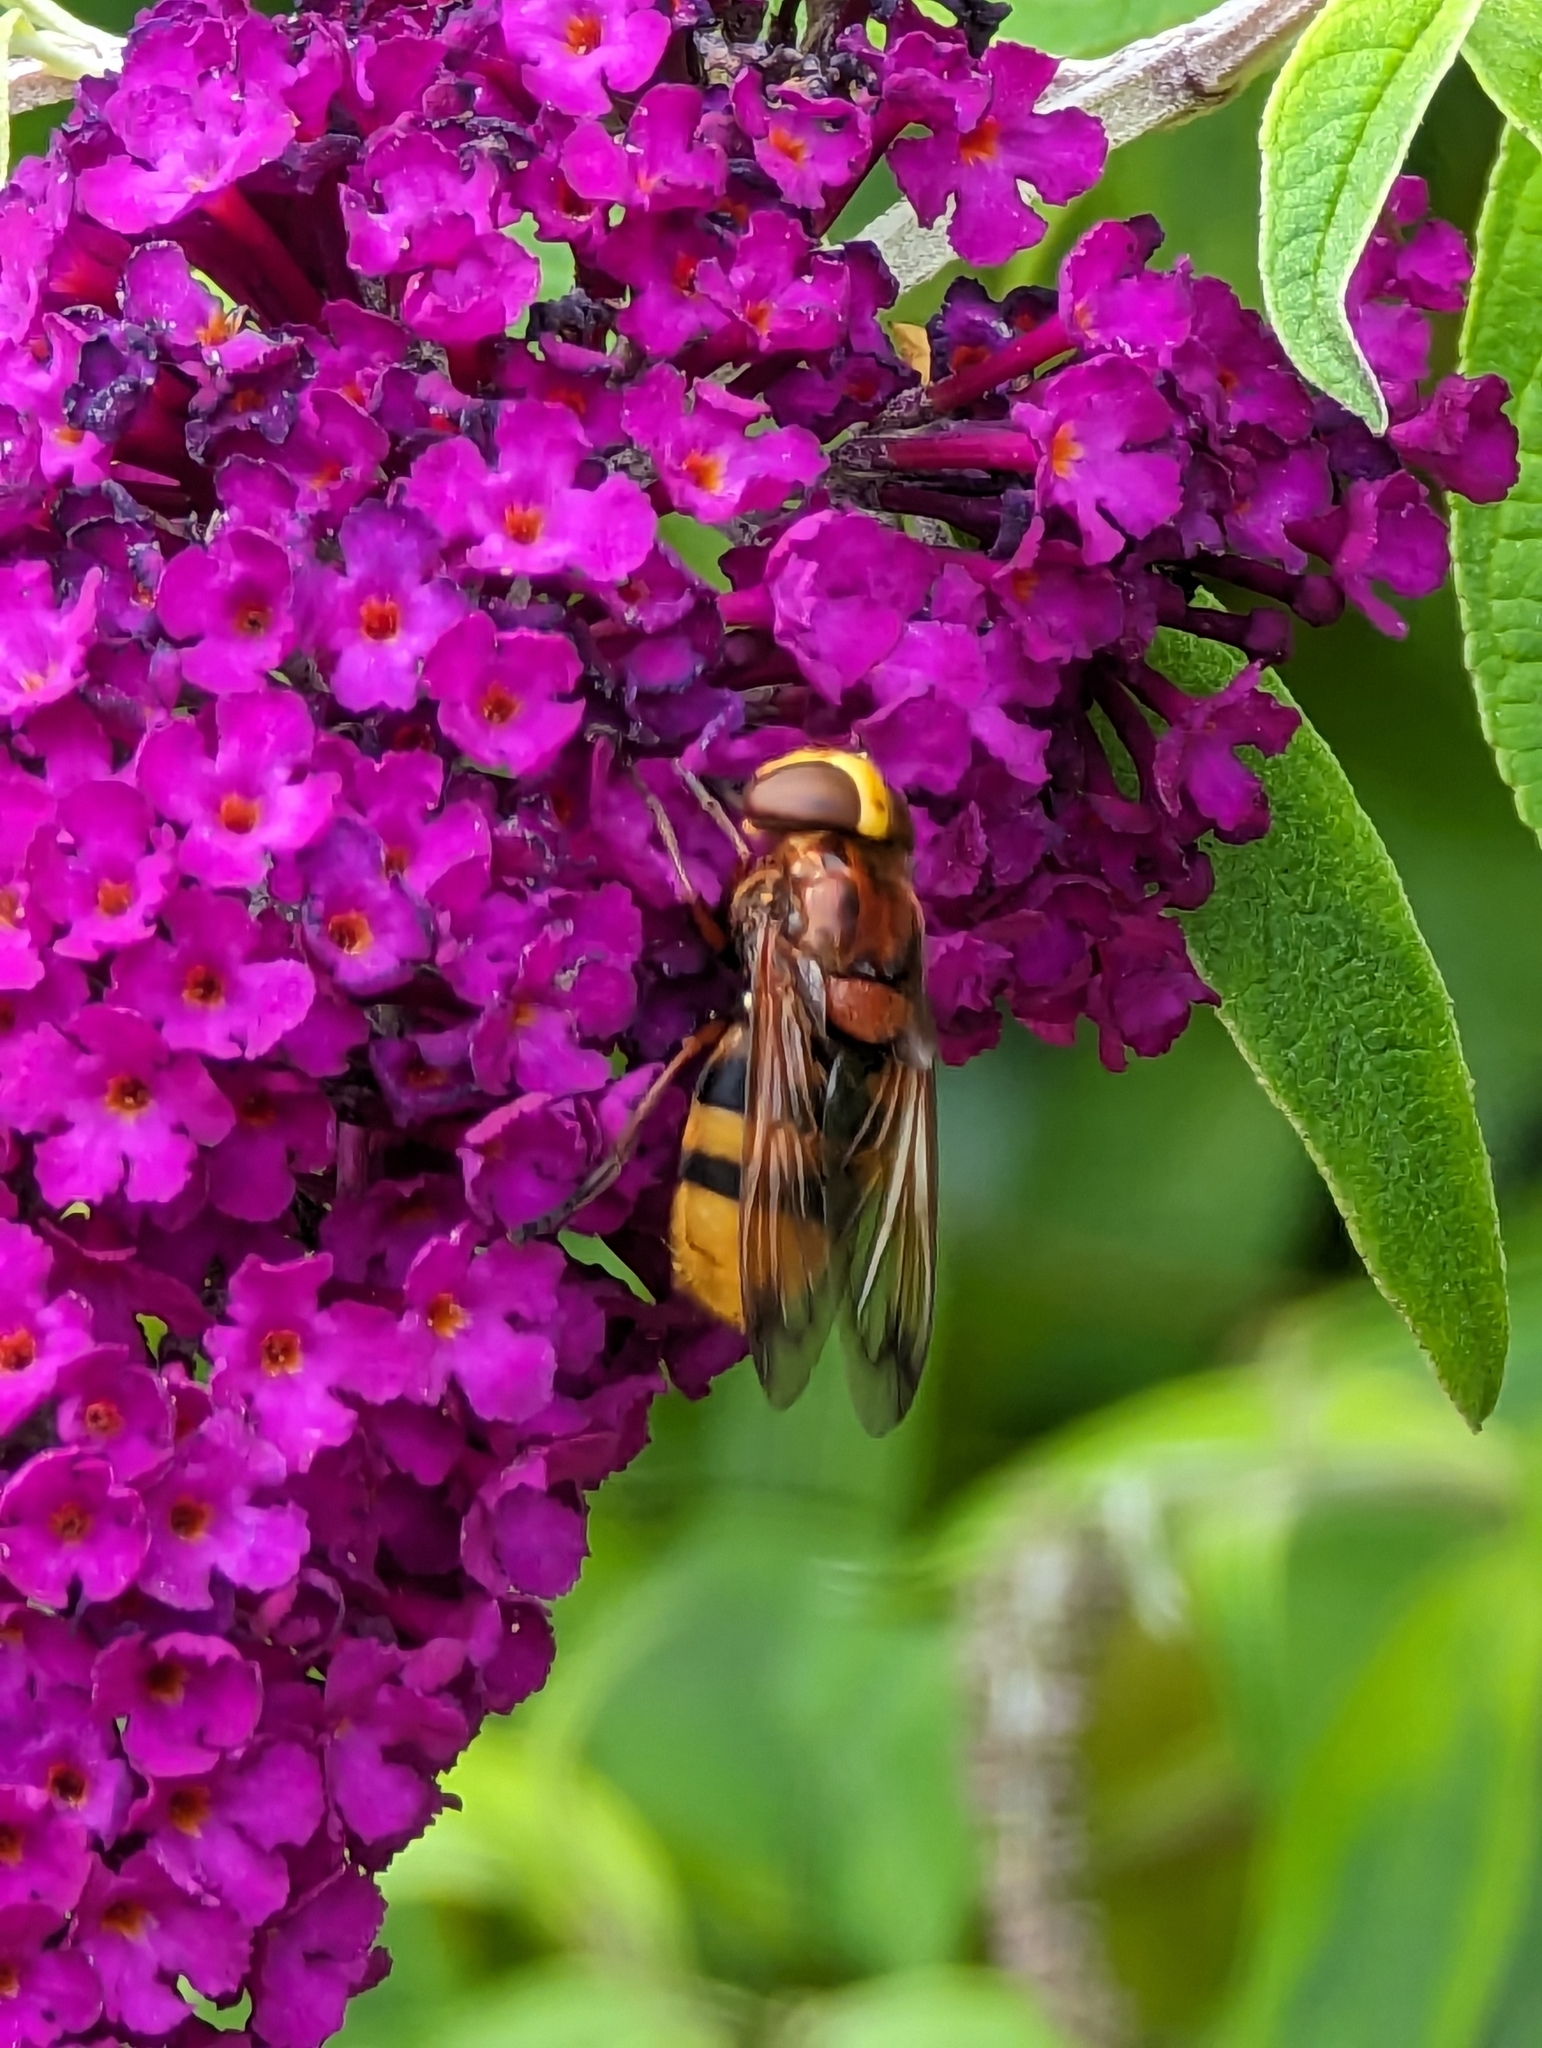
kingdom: Animalia
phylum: Arthropoda
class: Insecta
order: Diptera
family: Syrphidae
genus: Volucella
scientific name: Volucella zonaria
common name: Hornet hoverfly
